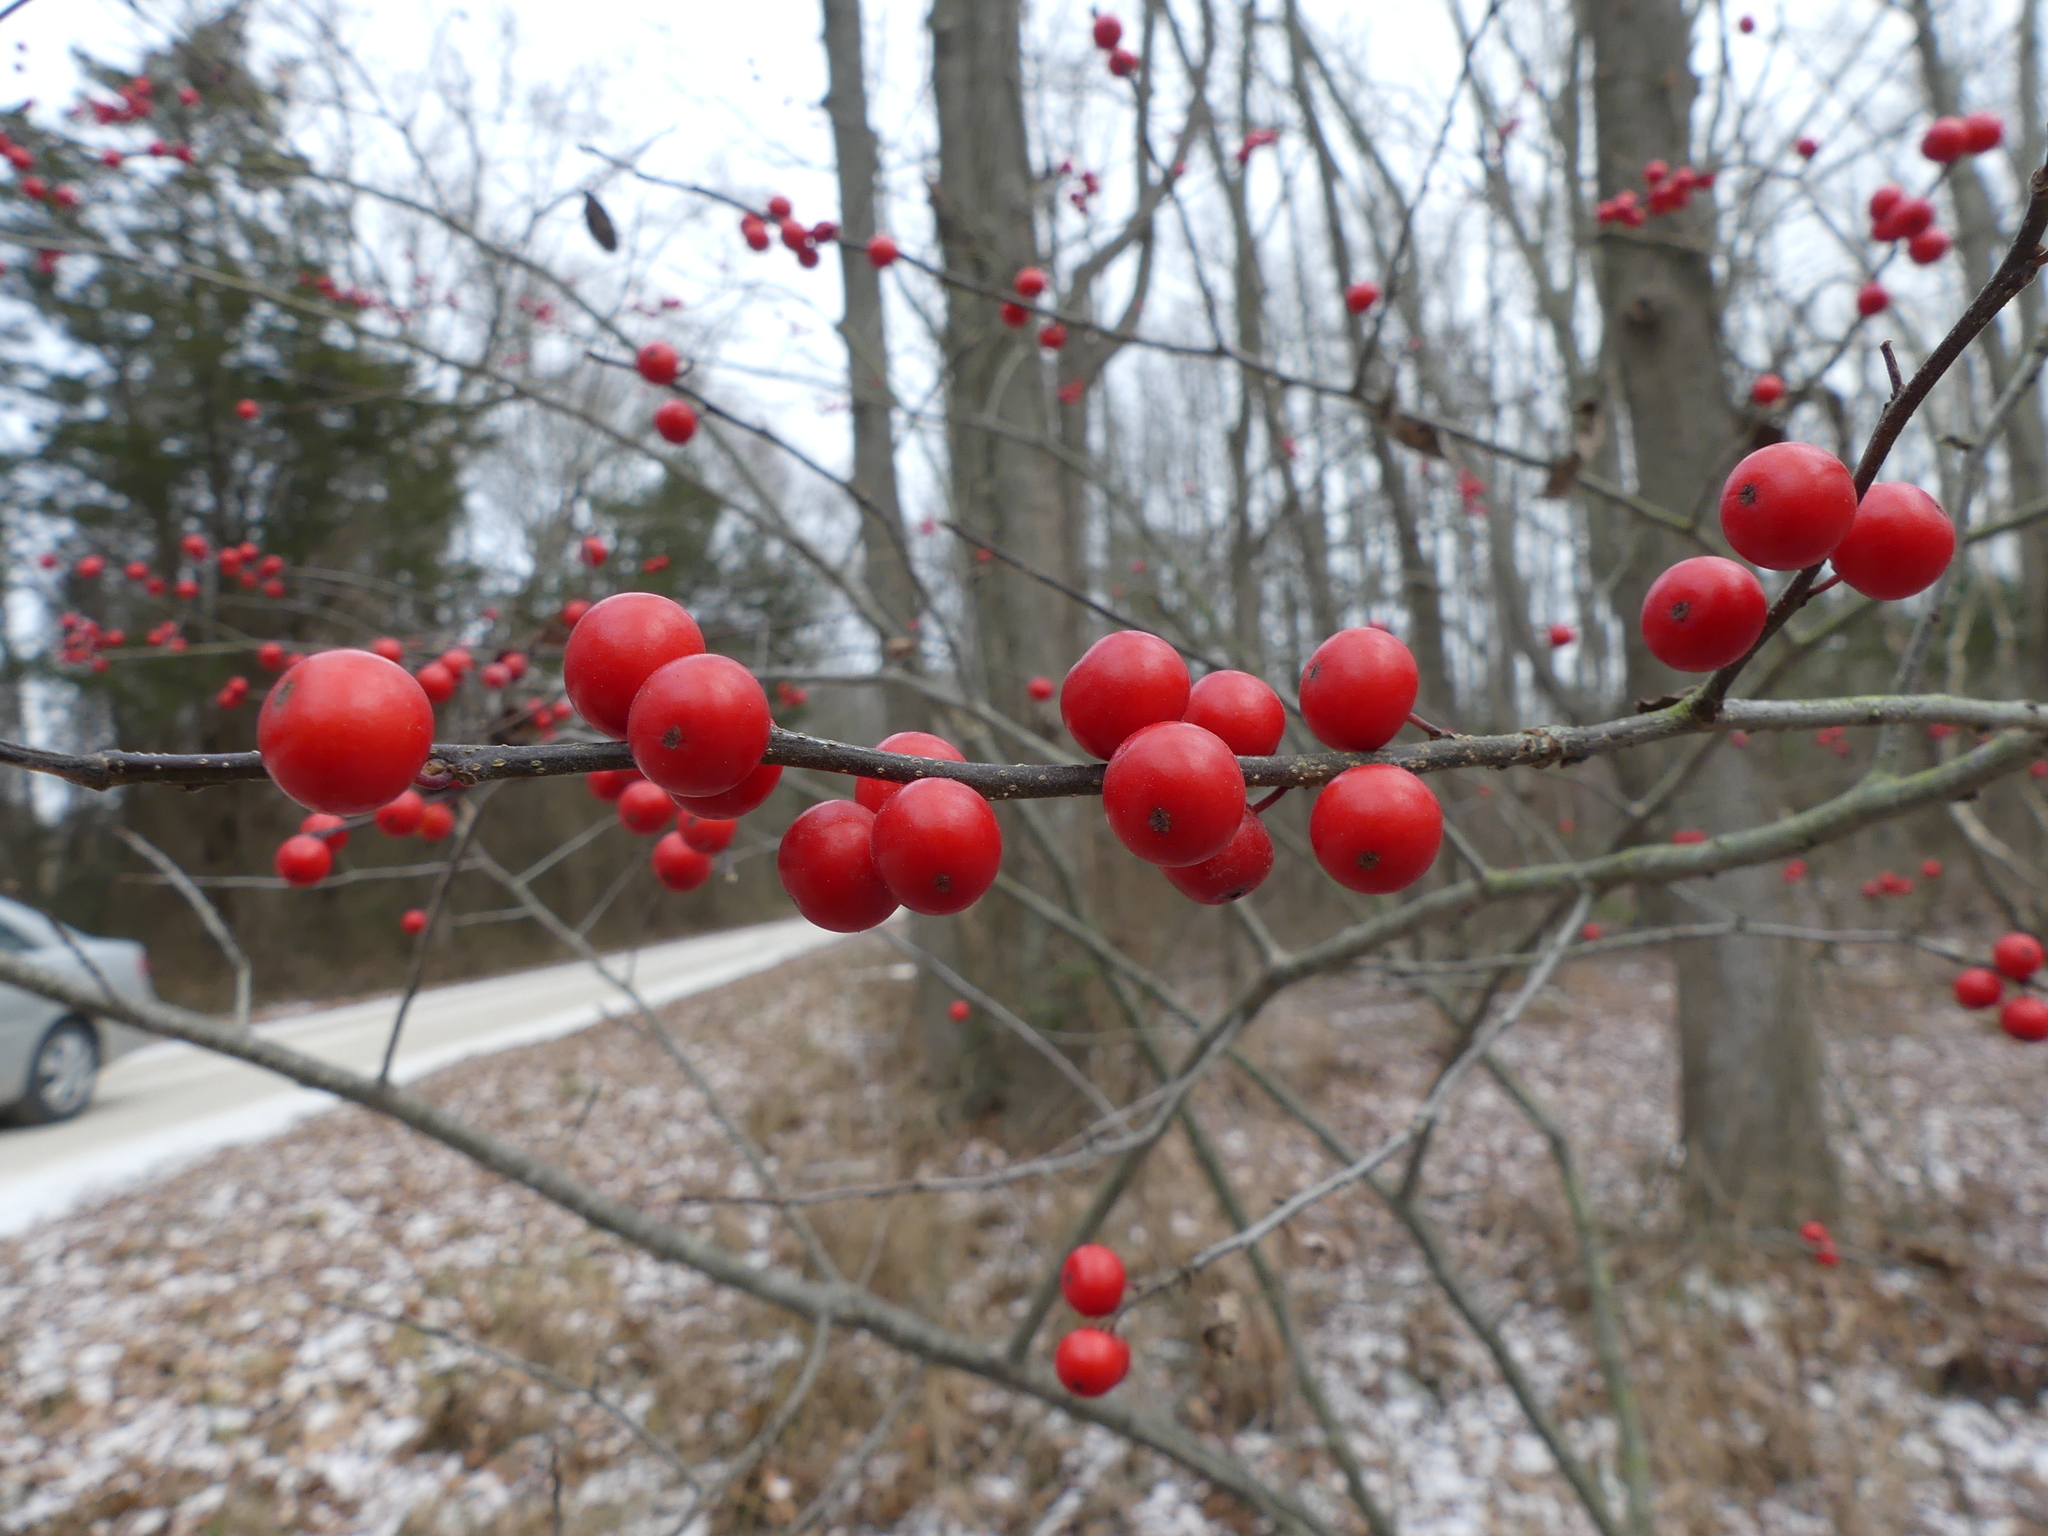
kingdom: Plantae
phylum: Tracheophyta
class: Magnoliopsida
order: Aquifoliales
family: Aquifoliaceae
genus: Ilex
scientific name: Ilex verticillata
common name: Virginia winterberry
